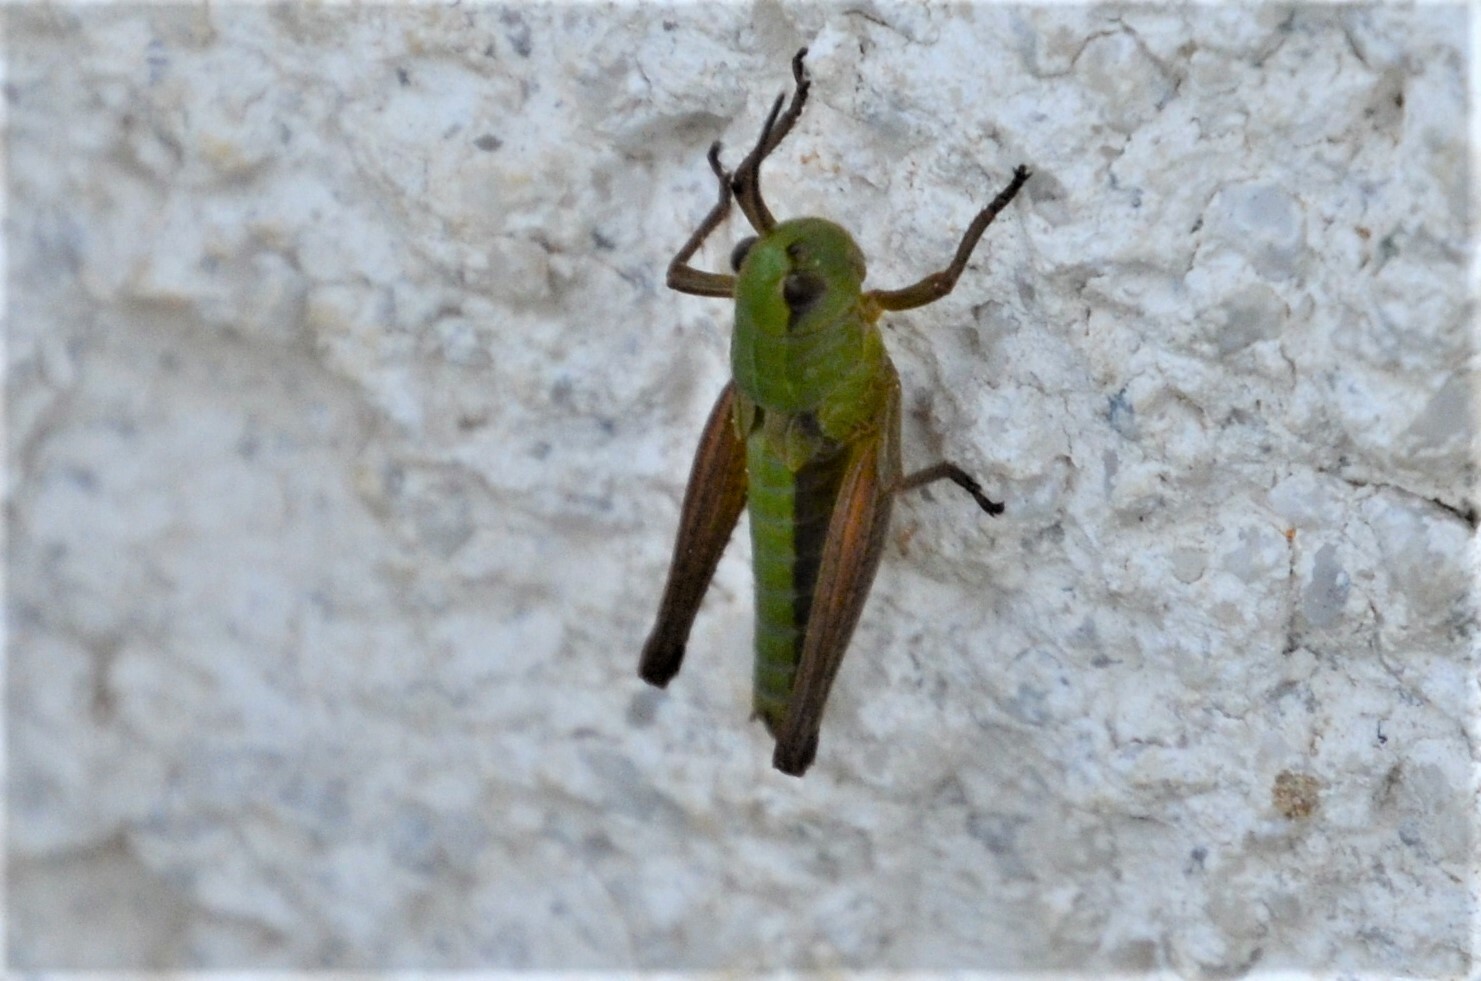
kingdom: Animalia
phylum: Arthropoda
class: Insecta
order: Orthoptera
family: Acrididae
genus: Pseudochorthippus
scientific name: Pseudochorthippus parallelus
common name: Meadow grasshopper
